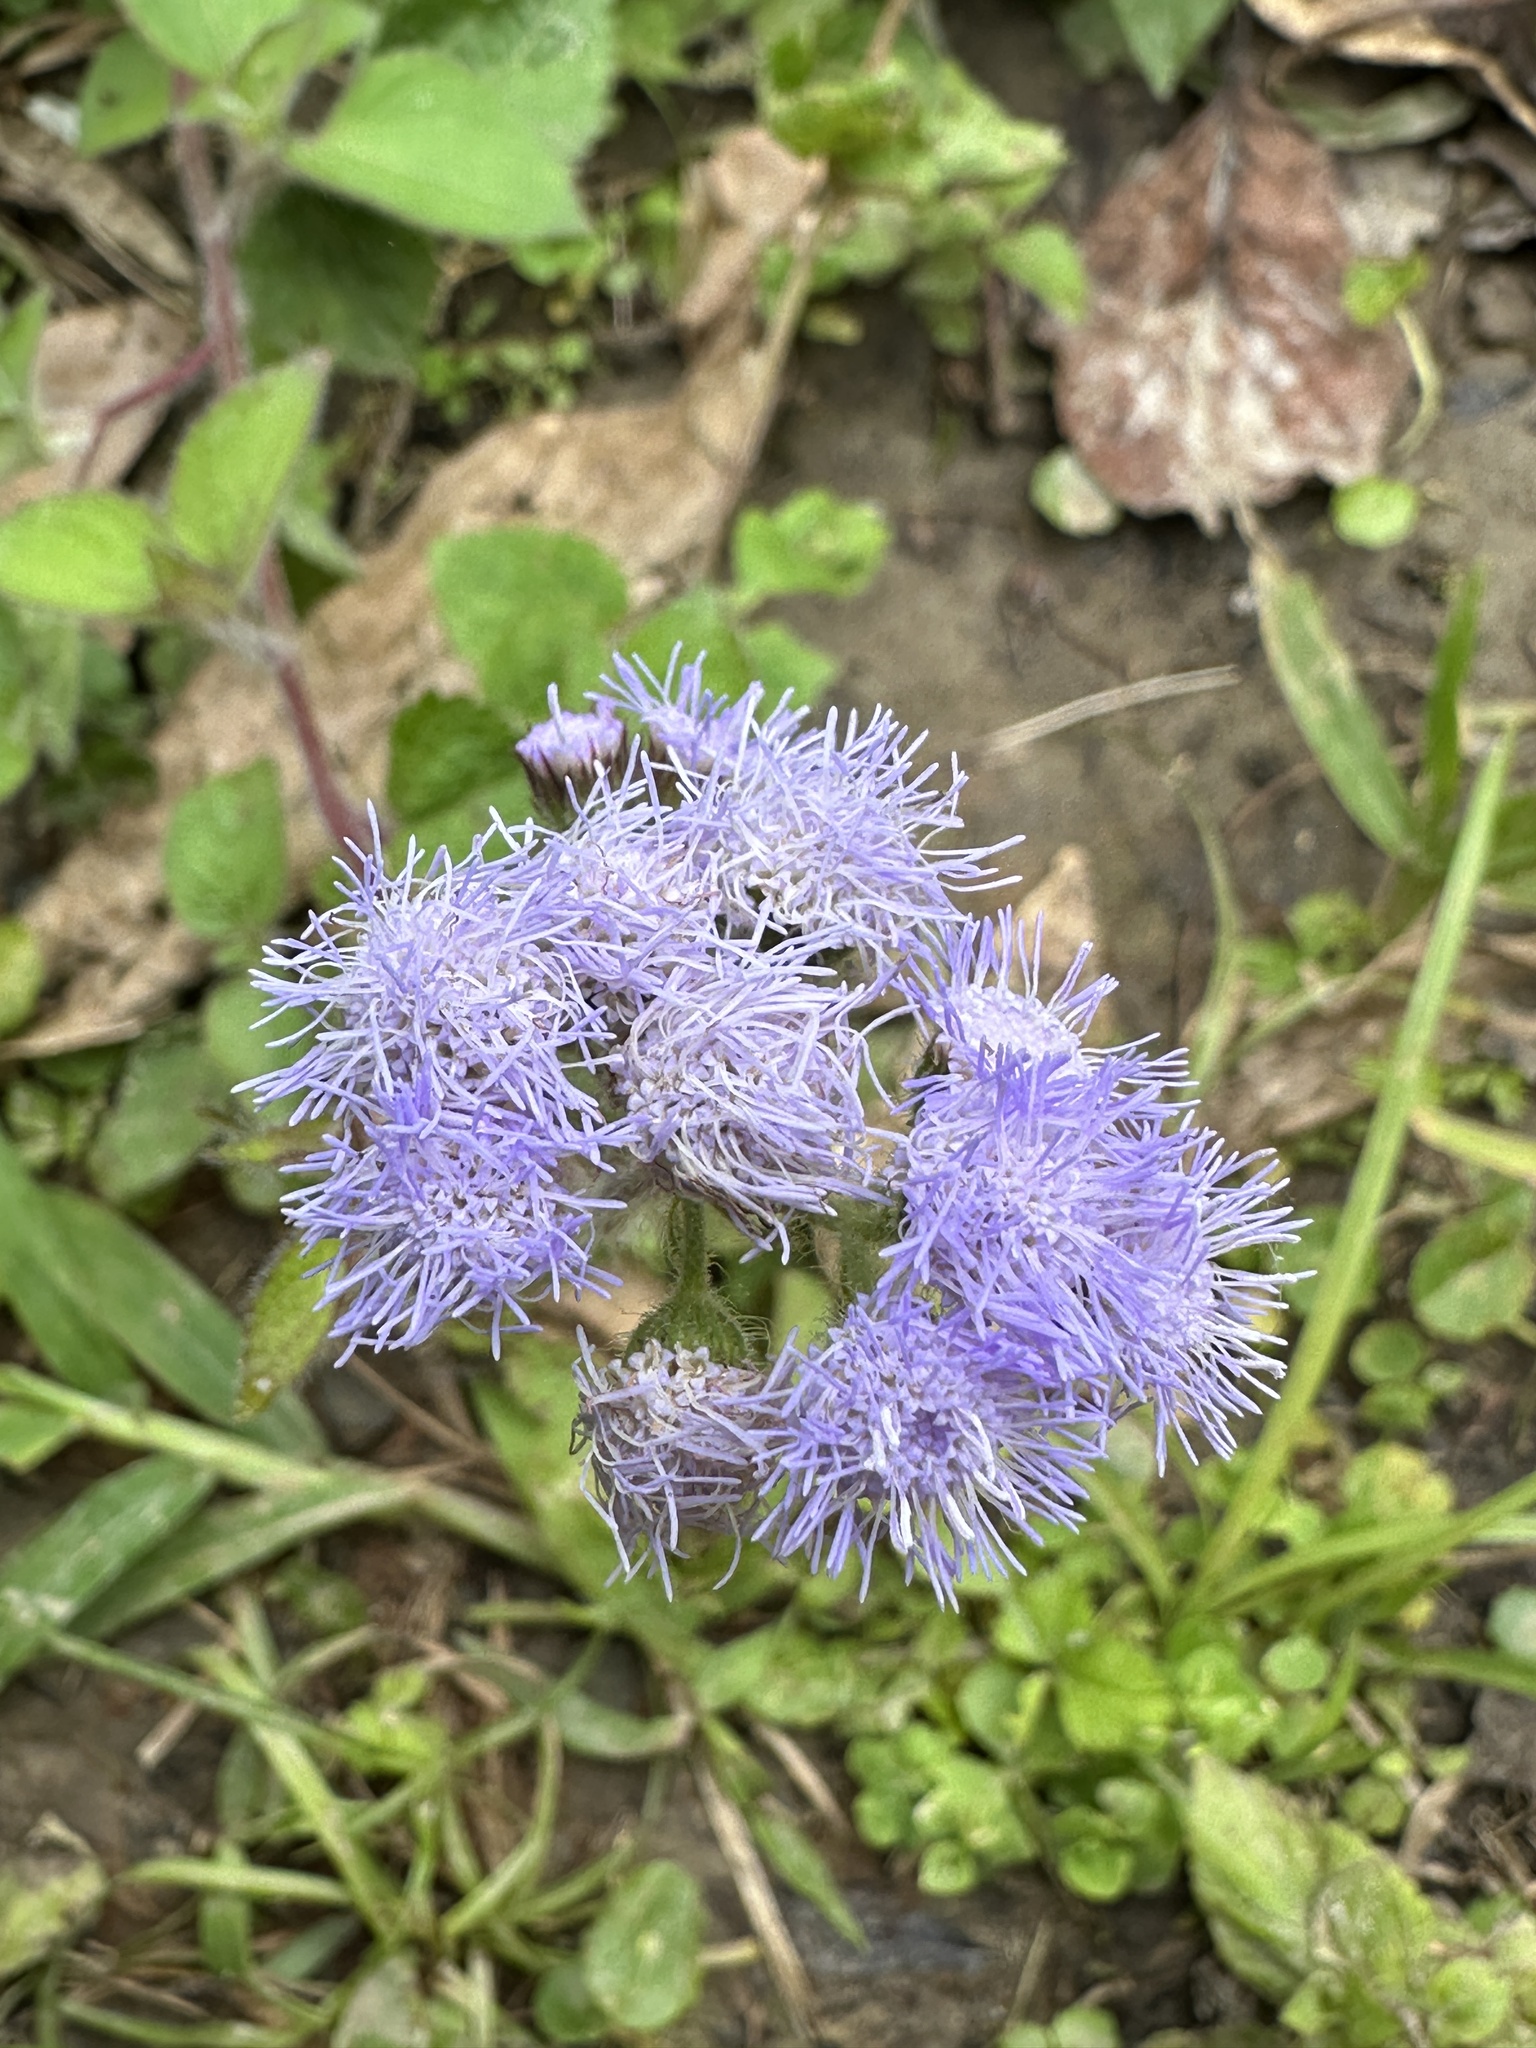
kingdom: Plantae
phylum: Tracheophyta
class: Magnoliopsida
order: Asterales
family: Asteraceae
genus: Ageratum
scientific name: Ageratum houstonianum
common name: Bluemink
